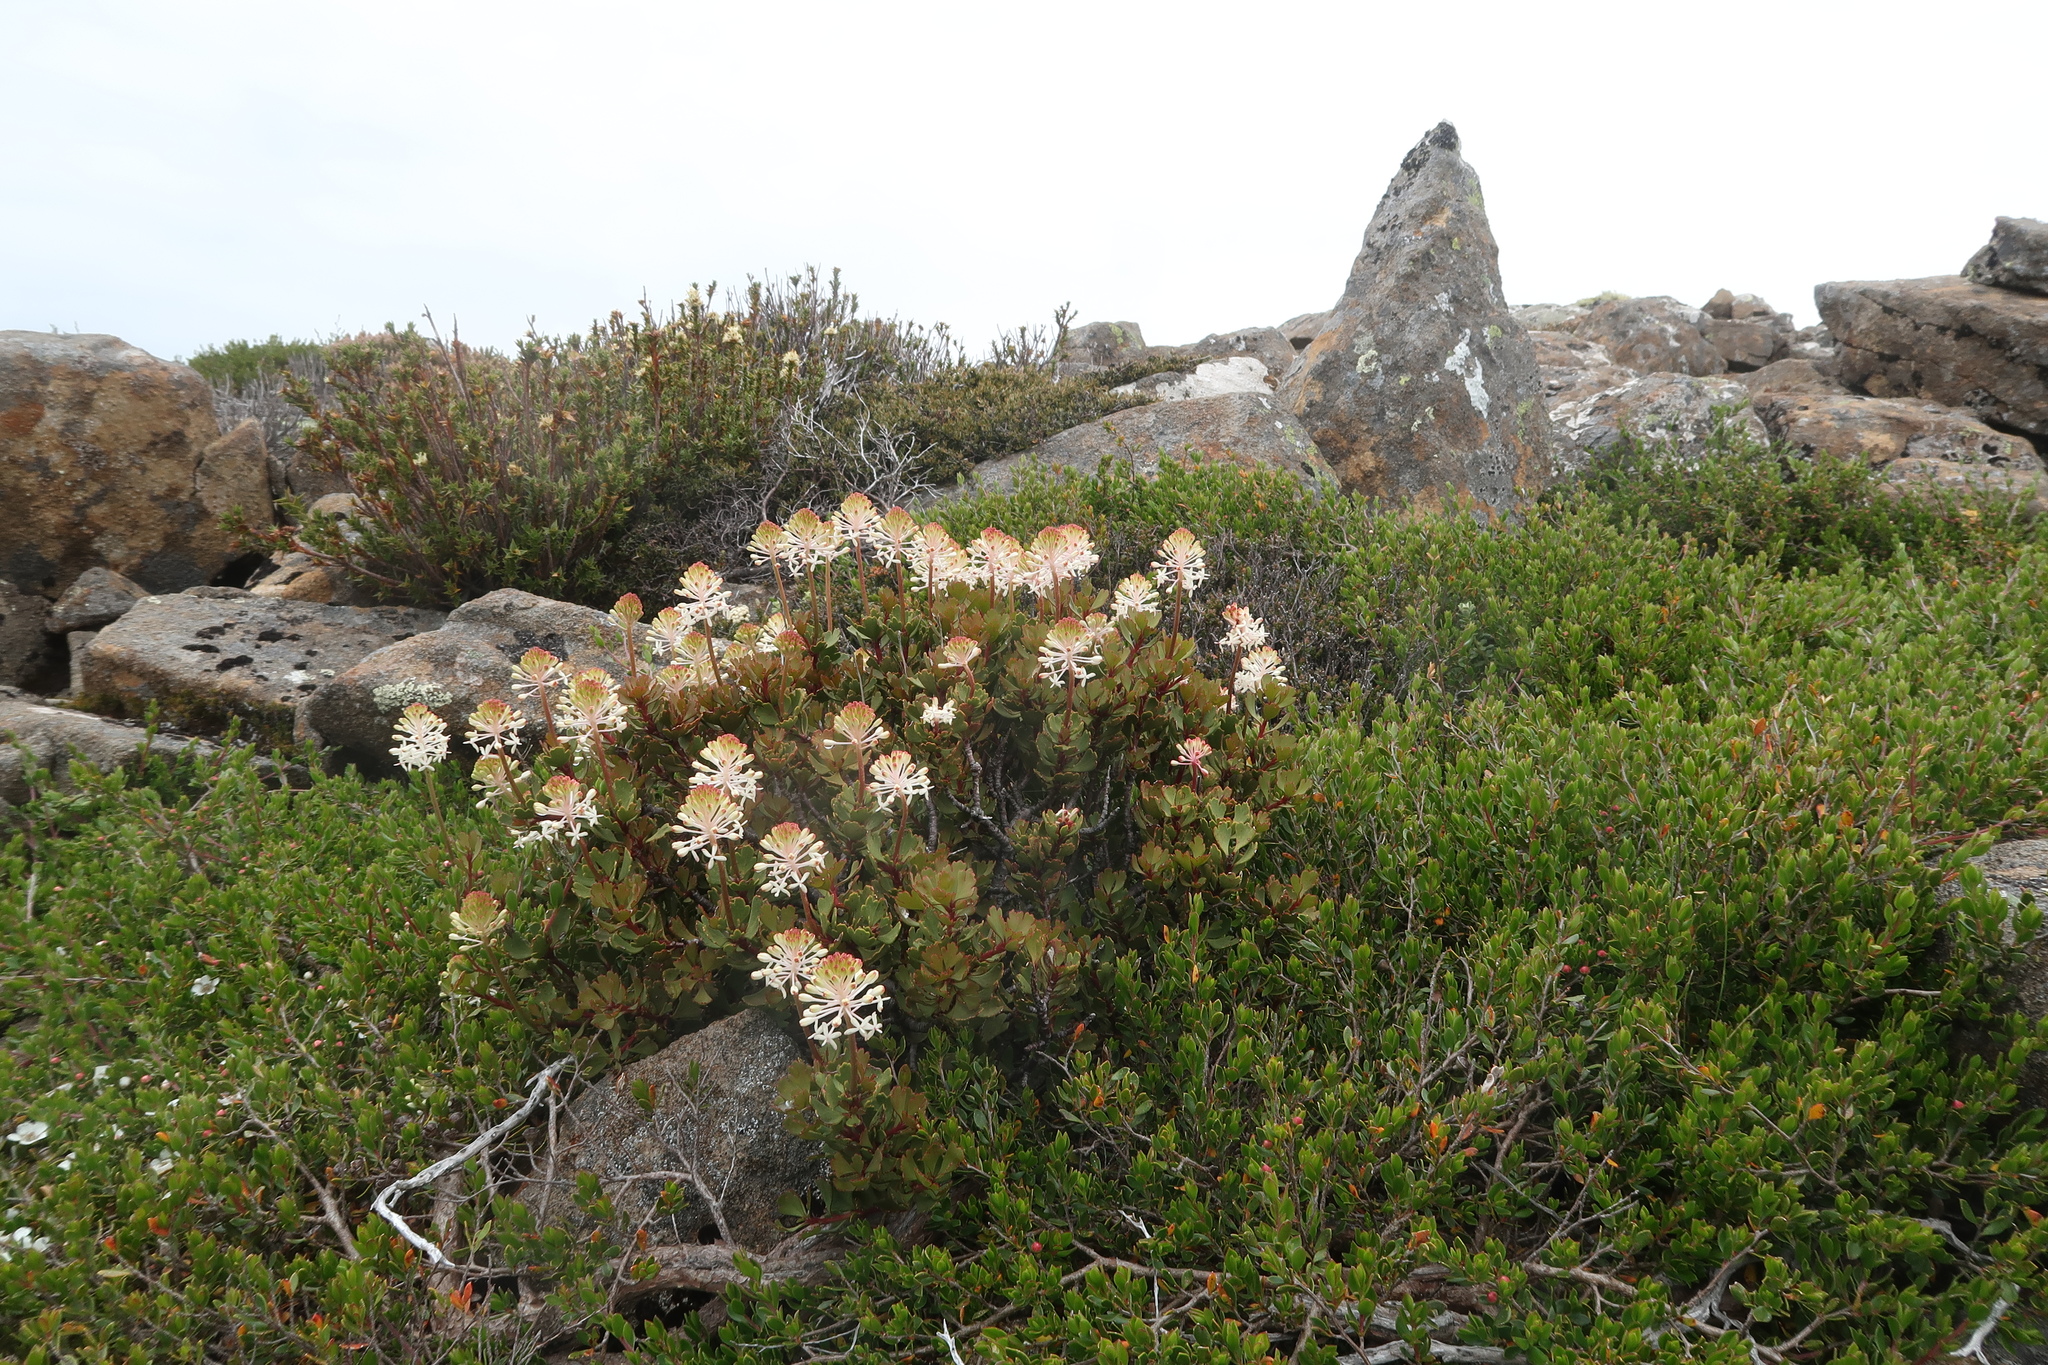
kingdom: Plantae
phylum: Tracheophyta
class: Magnoliopsida
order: Proteales
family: Proteaceae
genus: Bellendena
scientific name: Bellendena montana
